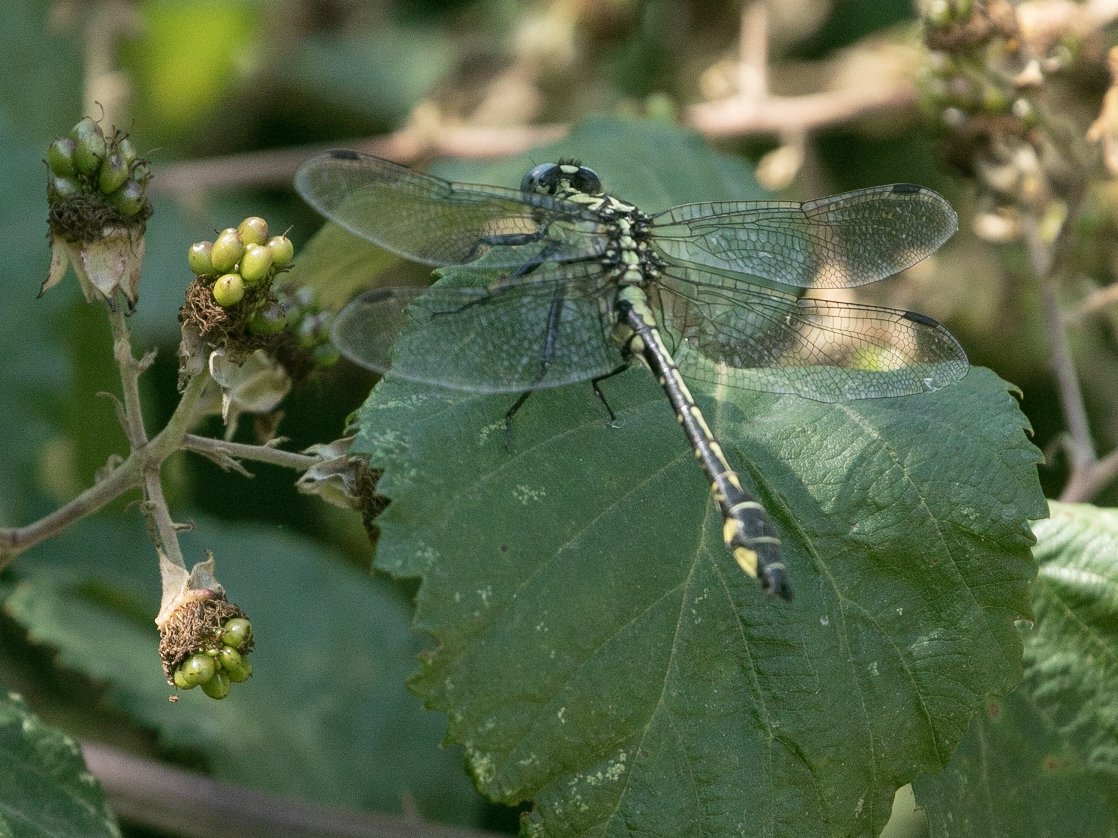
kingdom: Animalia
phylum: Arthropoda
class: Insecta
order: Odonata
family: Gomphidae
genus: Gomphus
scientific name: Gomphus vulgatissimus
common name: Club-tailed dragonfly
